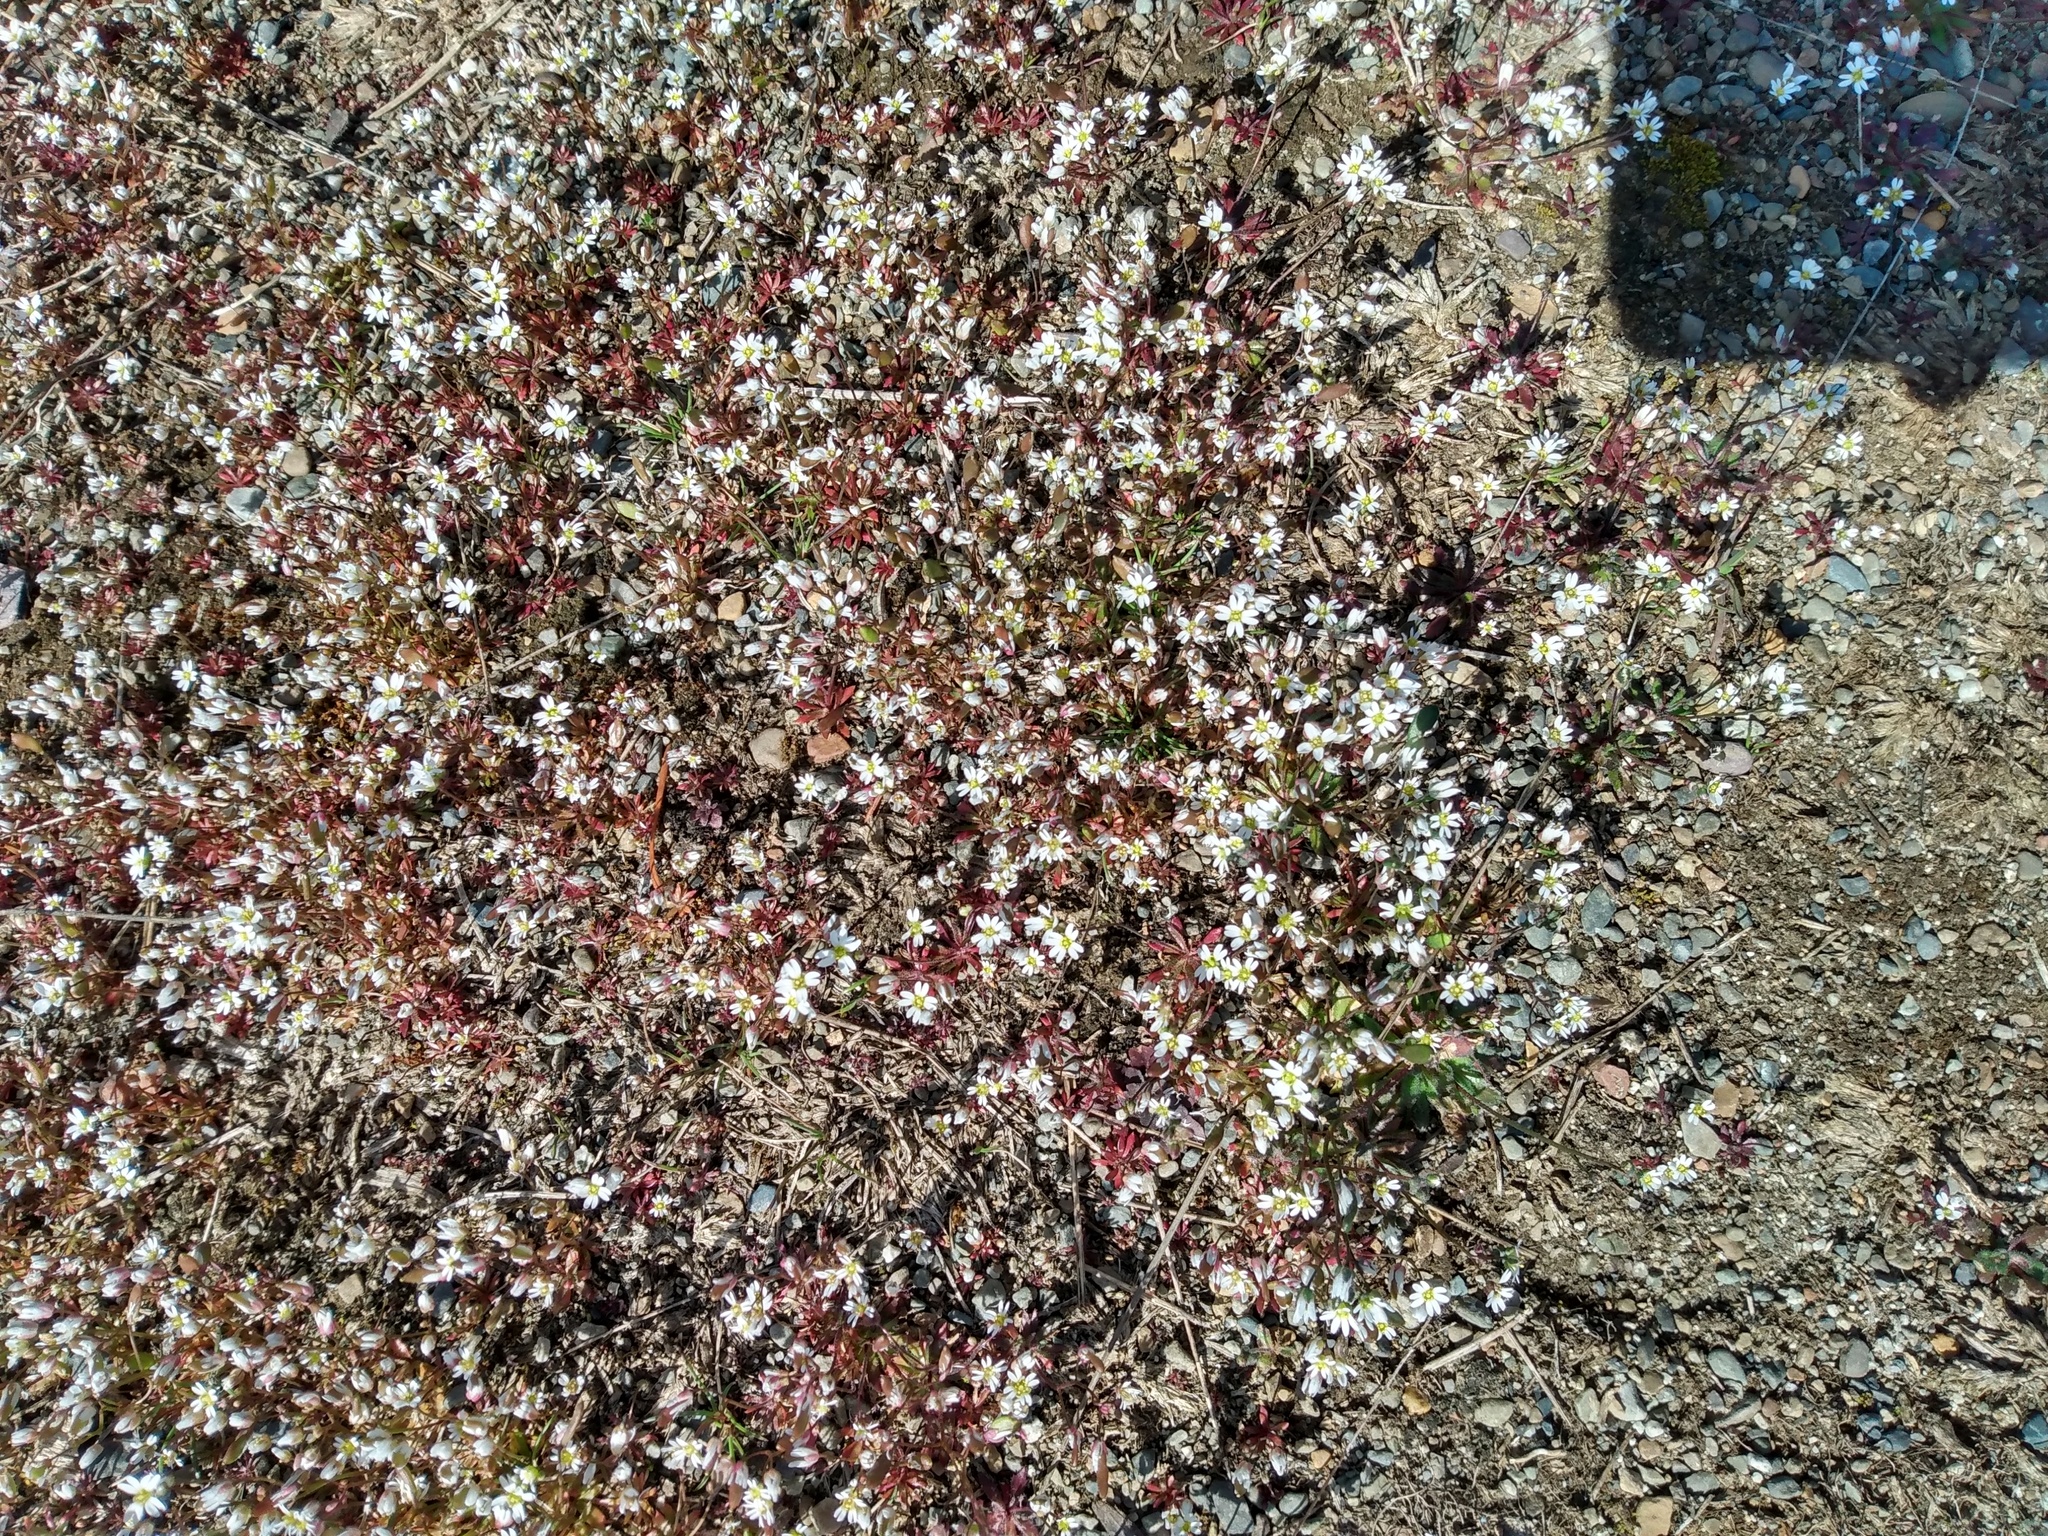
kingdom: Plantae
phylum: Tracheophyta
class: Magnoliopsida
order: Brassicales
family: Brassicaceae
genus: Draba
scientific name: Draba verna
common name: Spring draba
